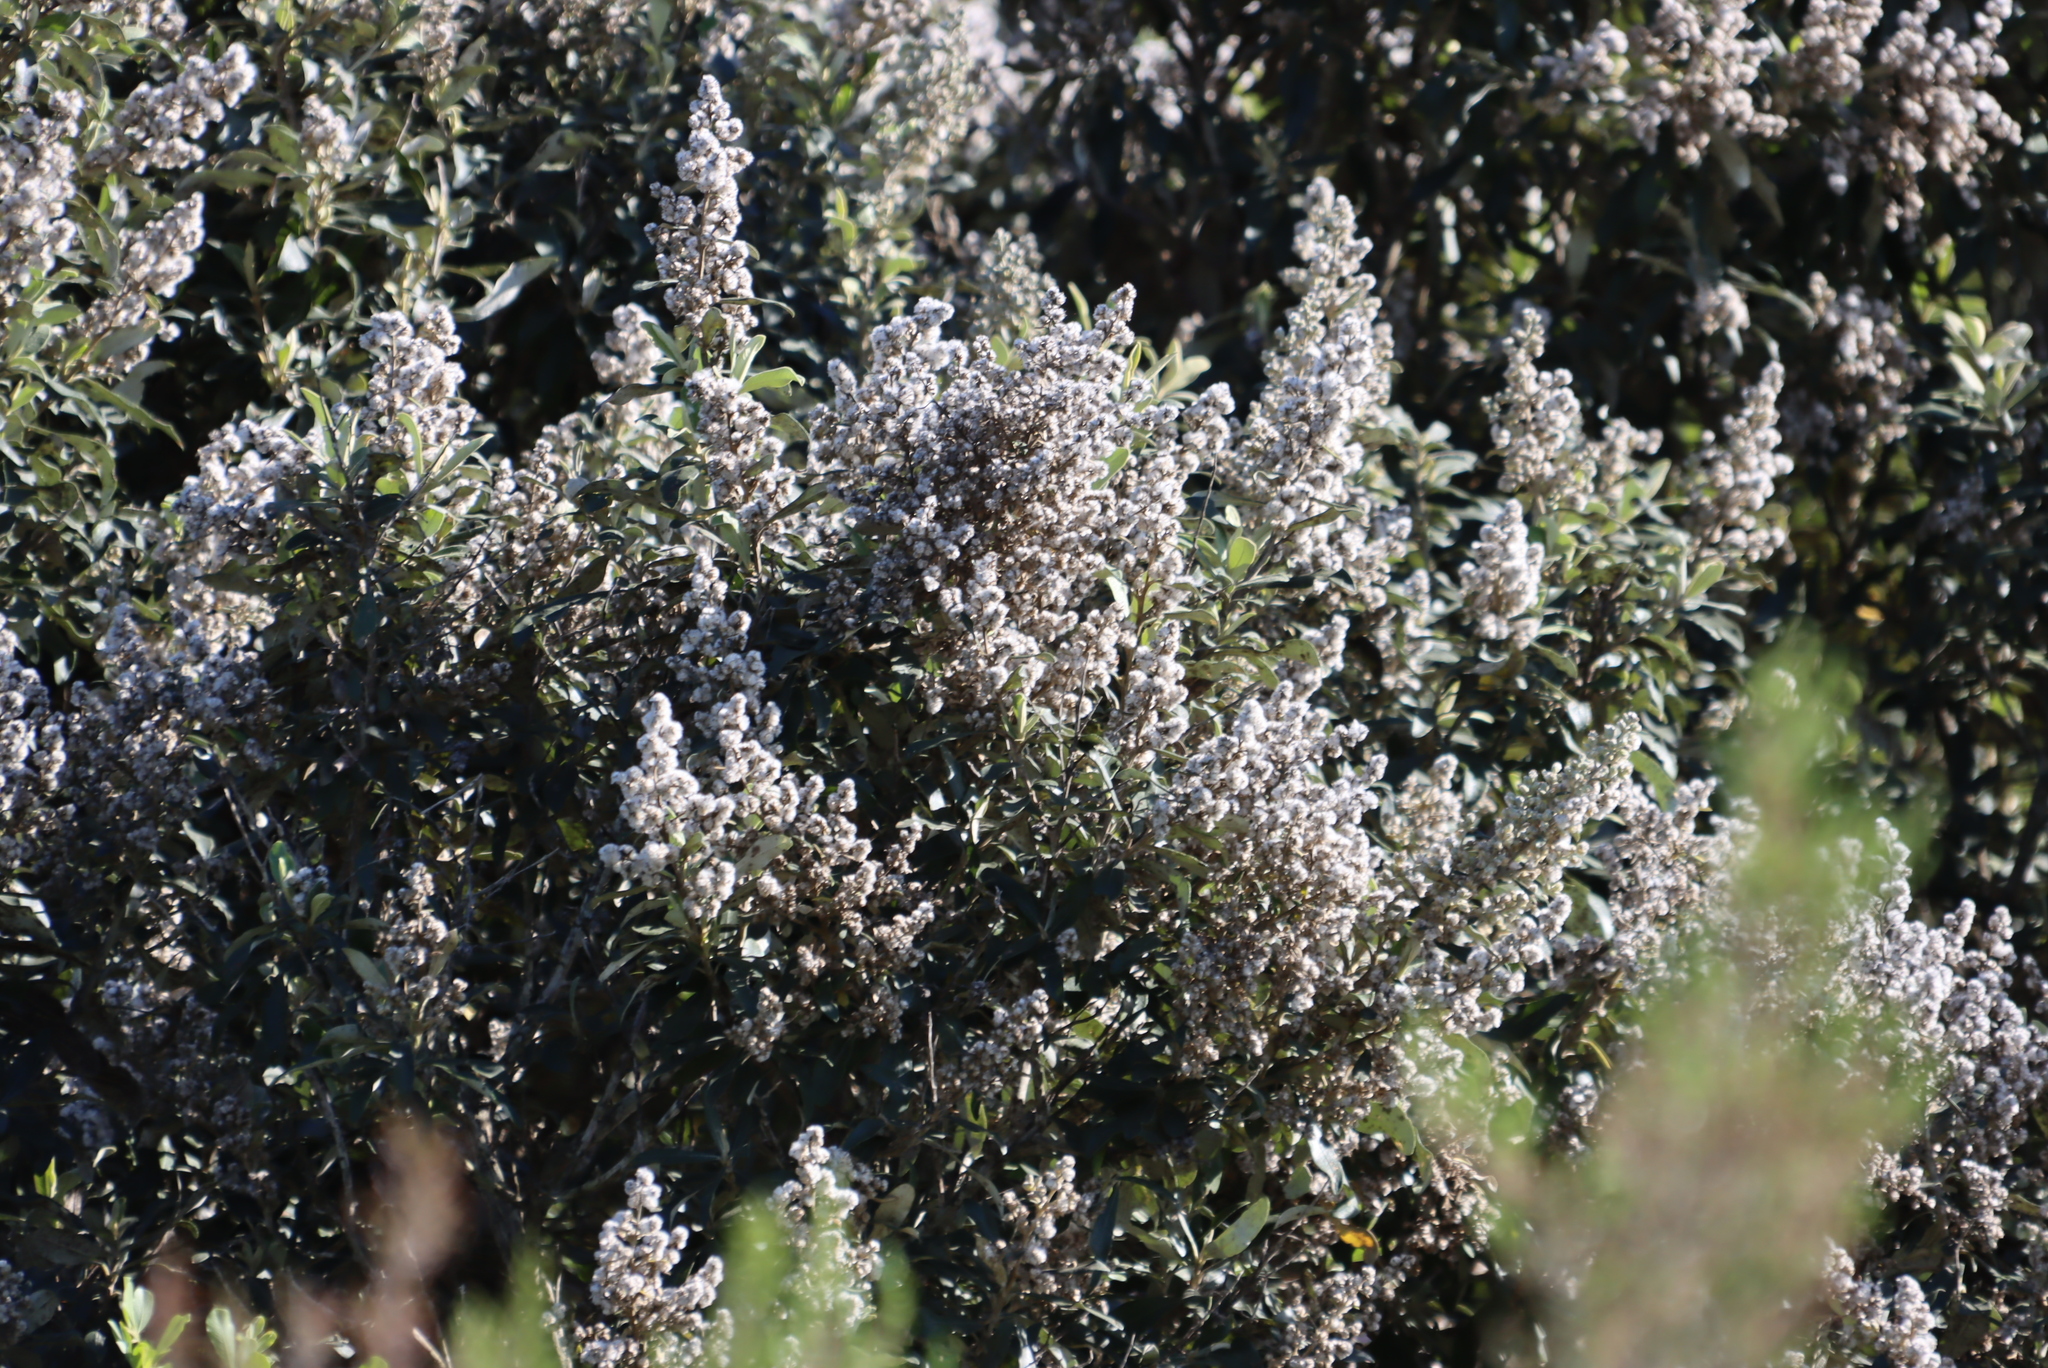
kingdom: Plantae
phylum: Tracheophyta
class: Magnoliopsida
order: Asterales
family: Asteraceae
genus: Tarchonanthus
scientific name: Tarchonanthus littoralis
